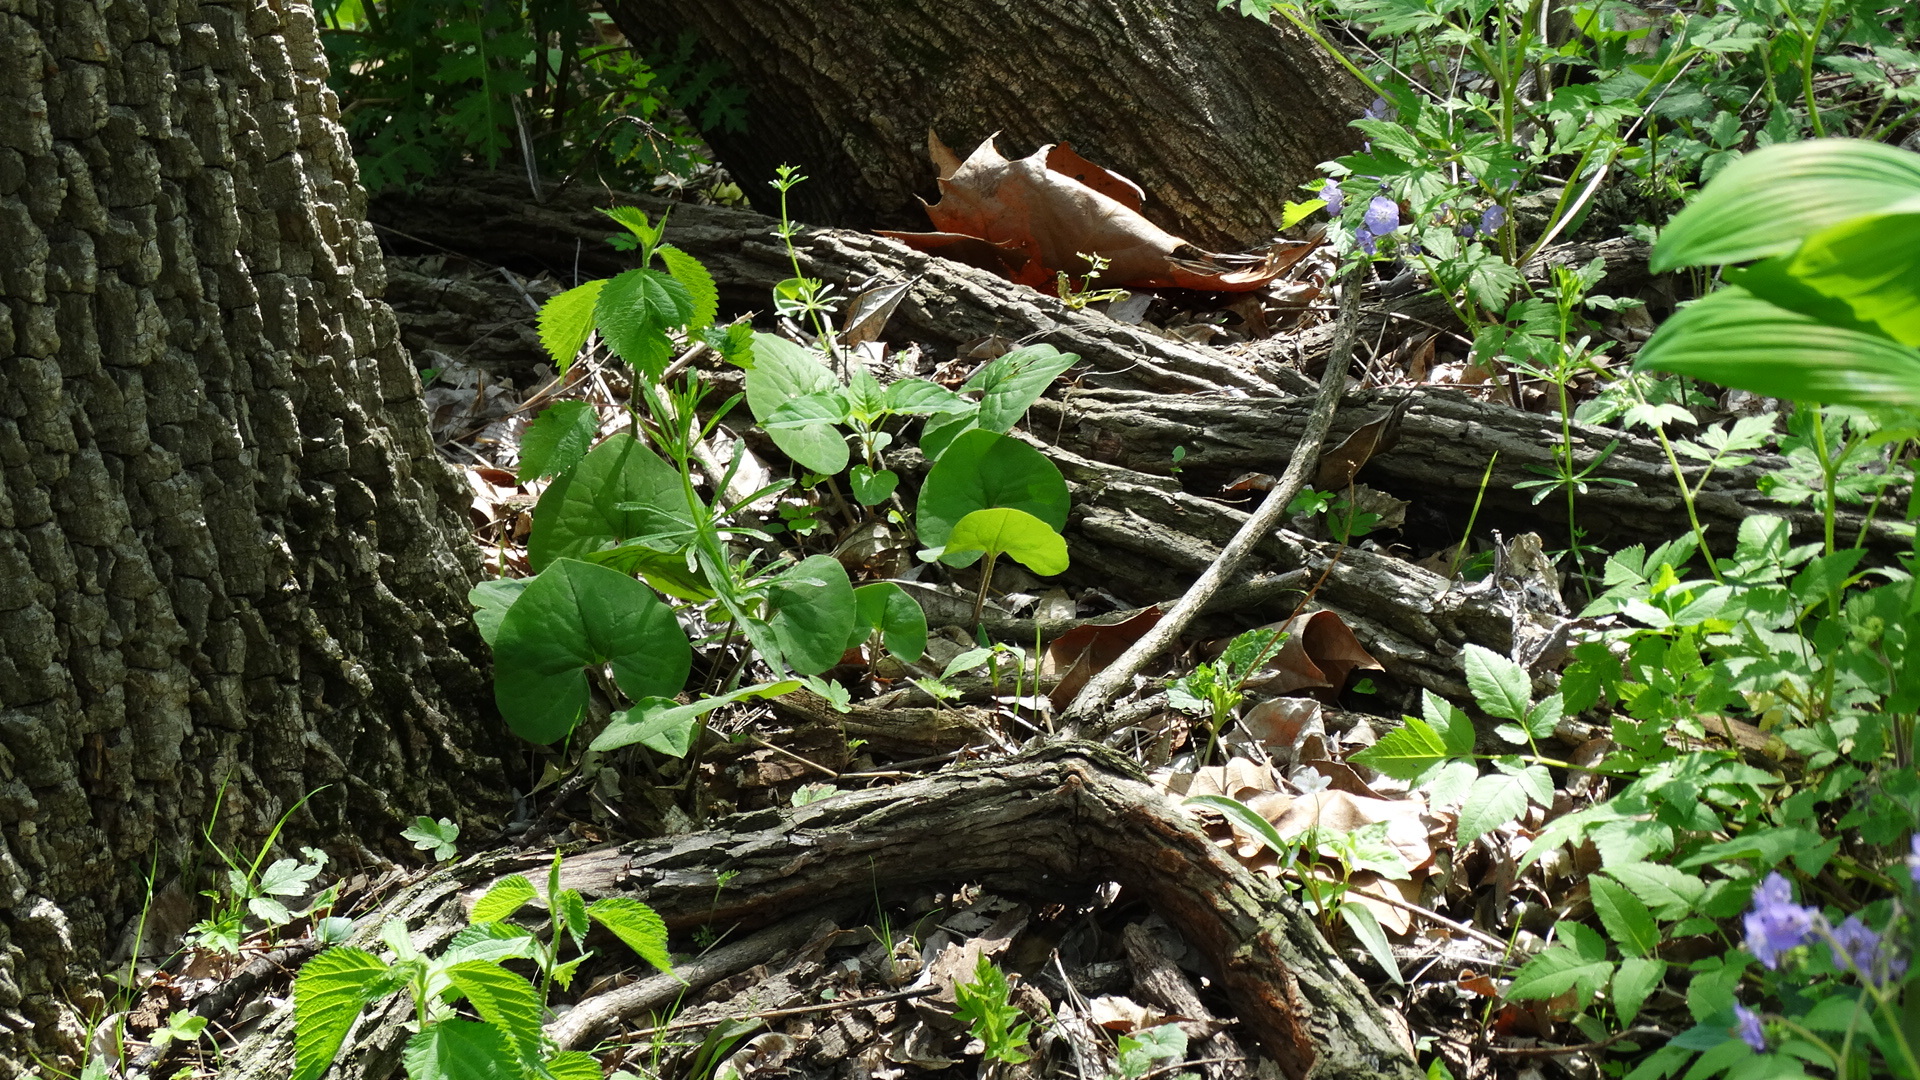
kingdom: Plantae
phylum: Tracheophyta
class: Magnoliopsida
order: Piperales
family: Aristolochiaceae
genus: Asarum
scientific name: Asarum canadense
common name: Wild ginger
